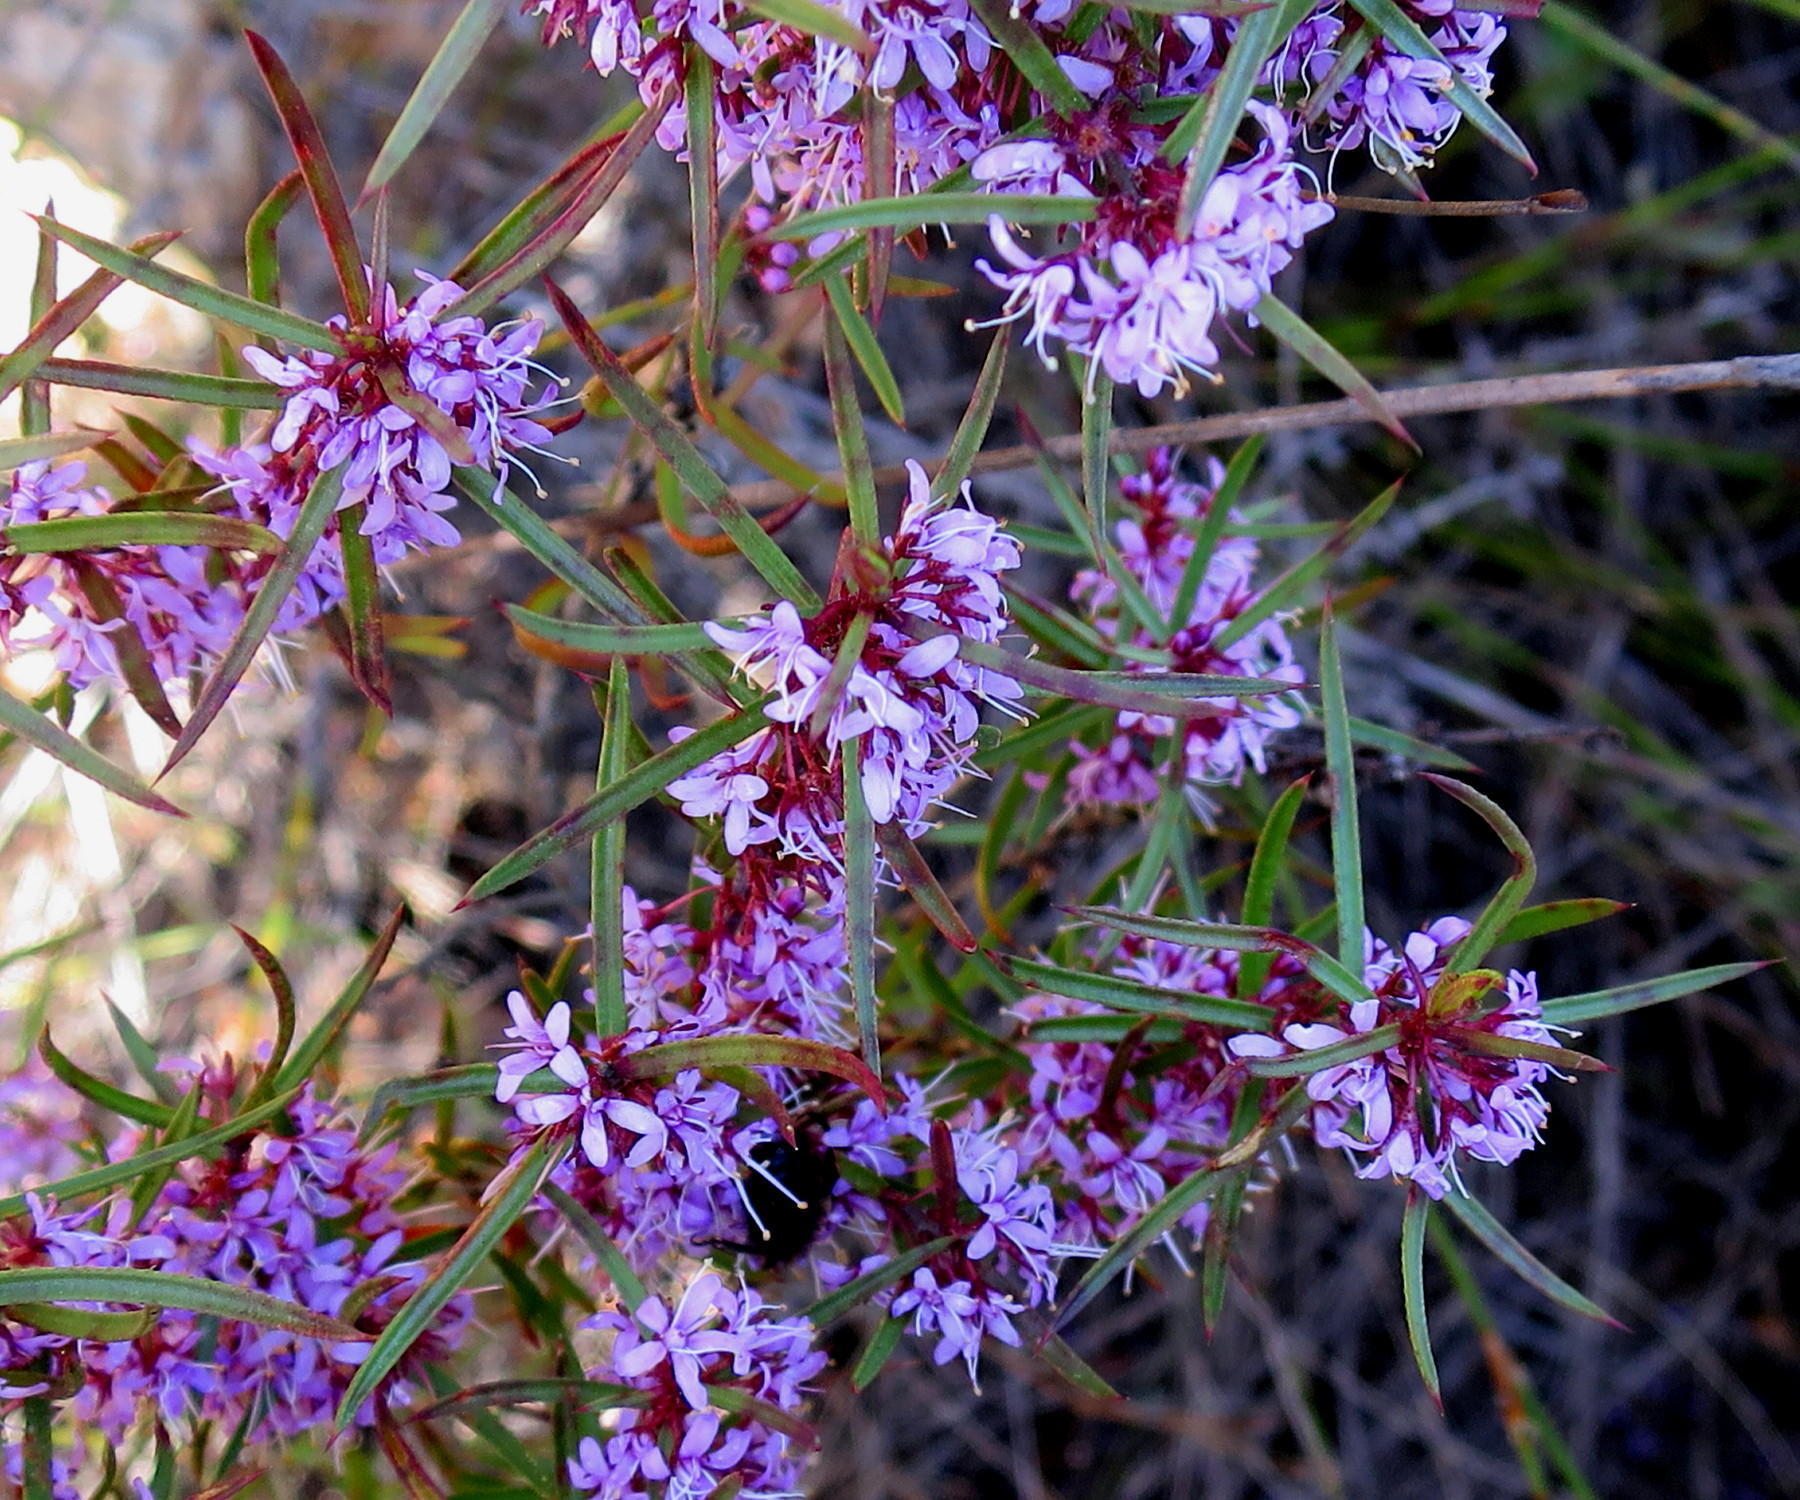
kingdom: Plantae
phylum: Tracheophyta
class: Magnoliopsida
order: Sapindales
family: Rutaceae
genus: Agathosma
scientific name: Agathosma pungens
